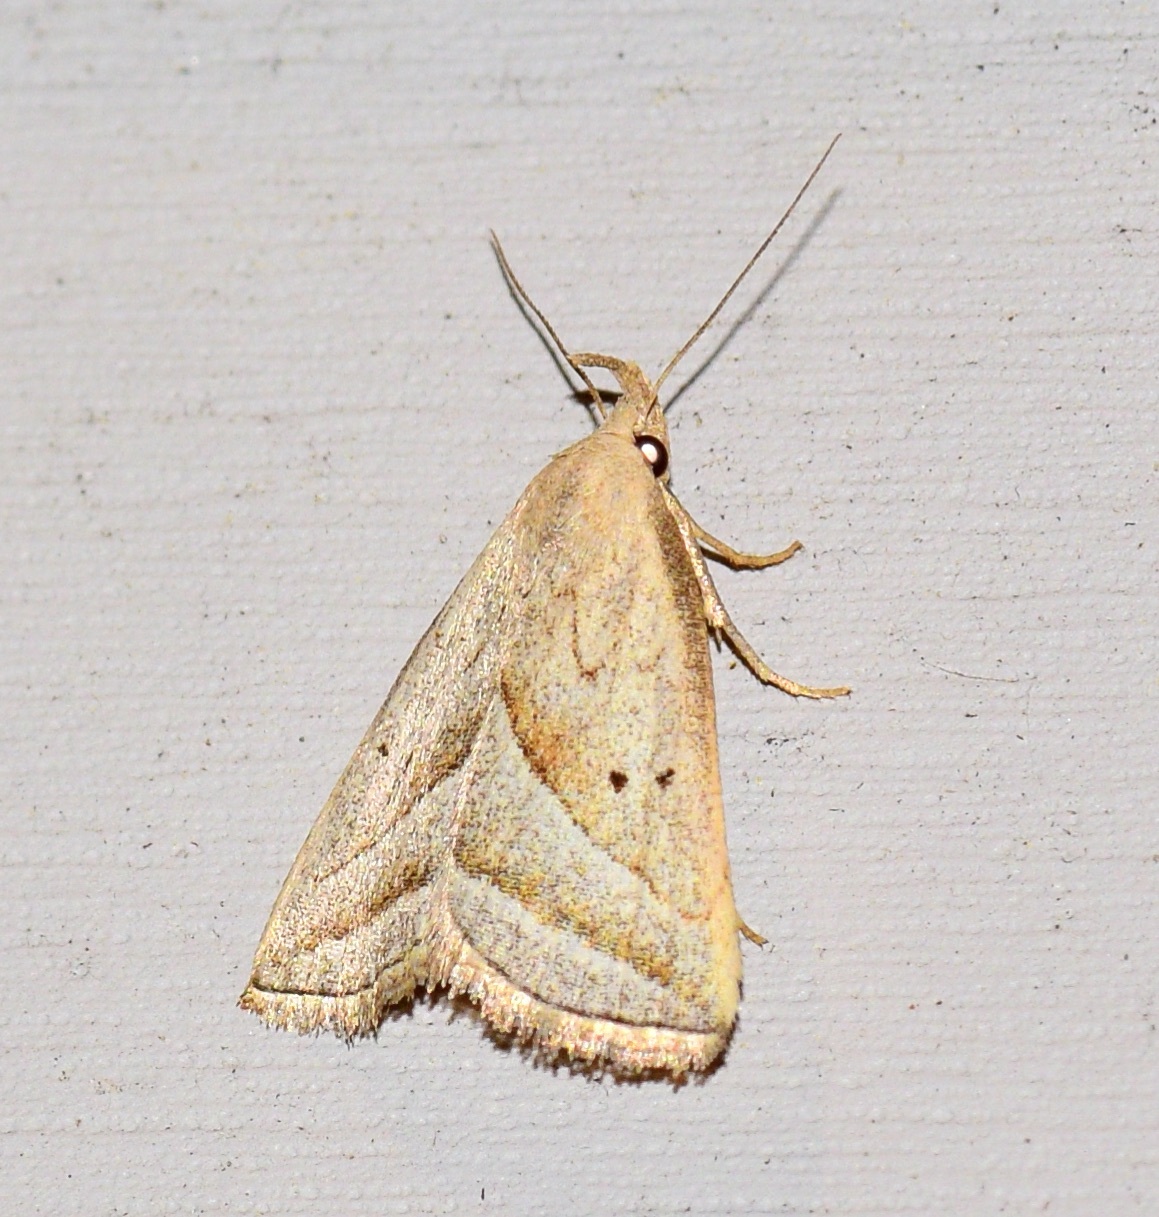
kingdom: Animalia
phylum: Arthropoda
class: Insecta
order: Lepidoptera
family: Erebidae
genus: Macrochilo
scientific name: Macrochilo absorptalis
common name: Slant-lined owlet
